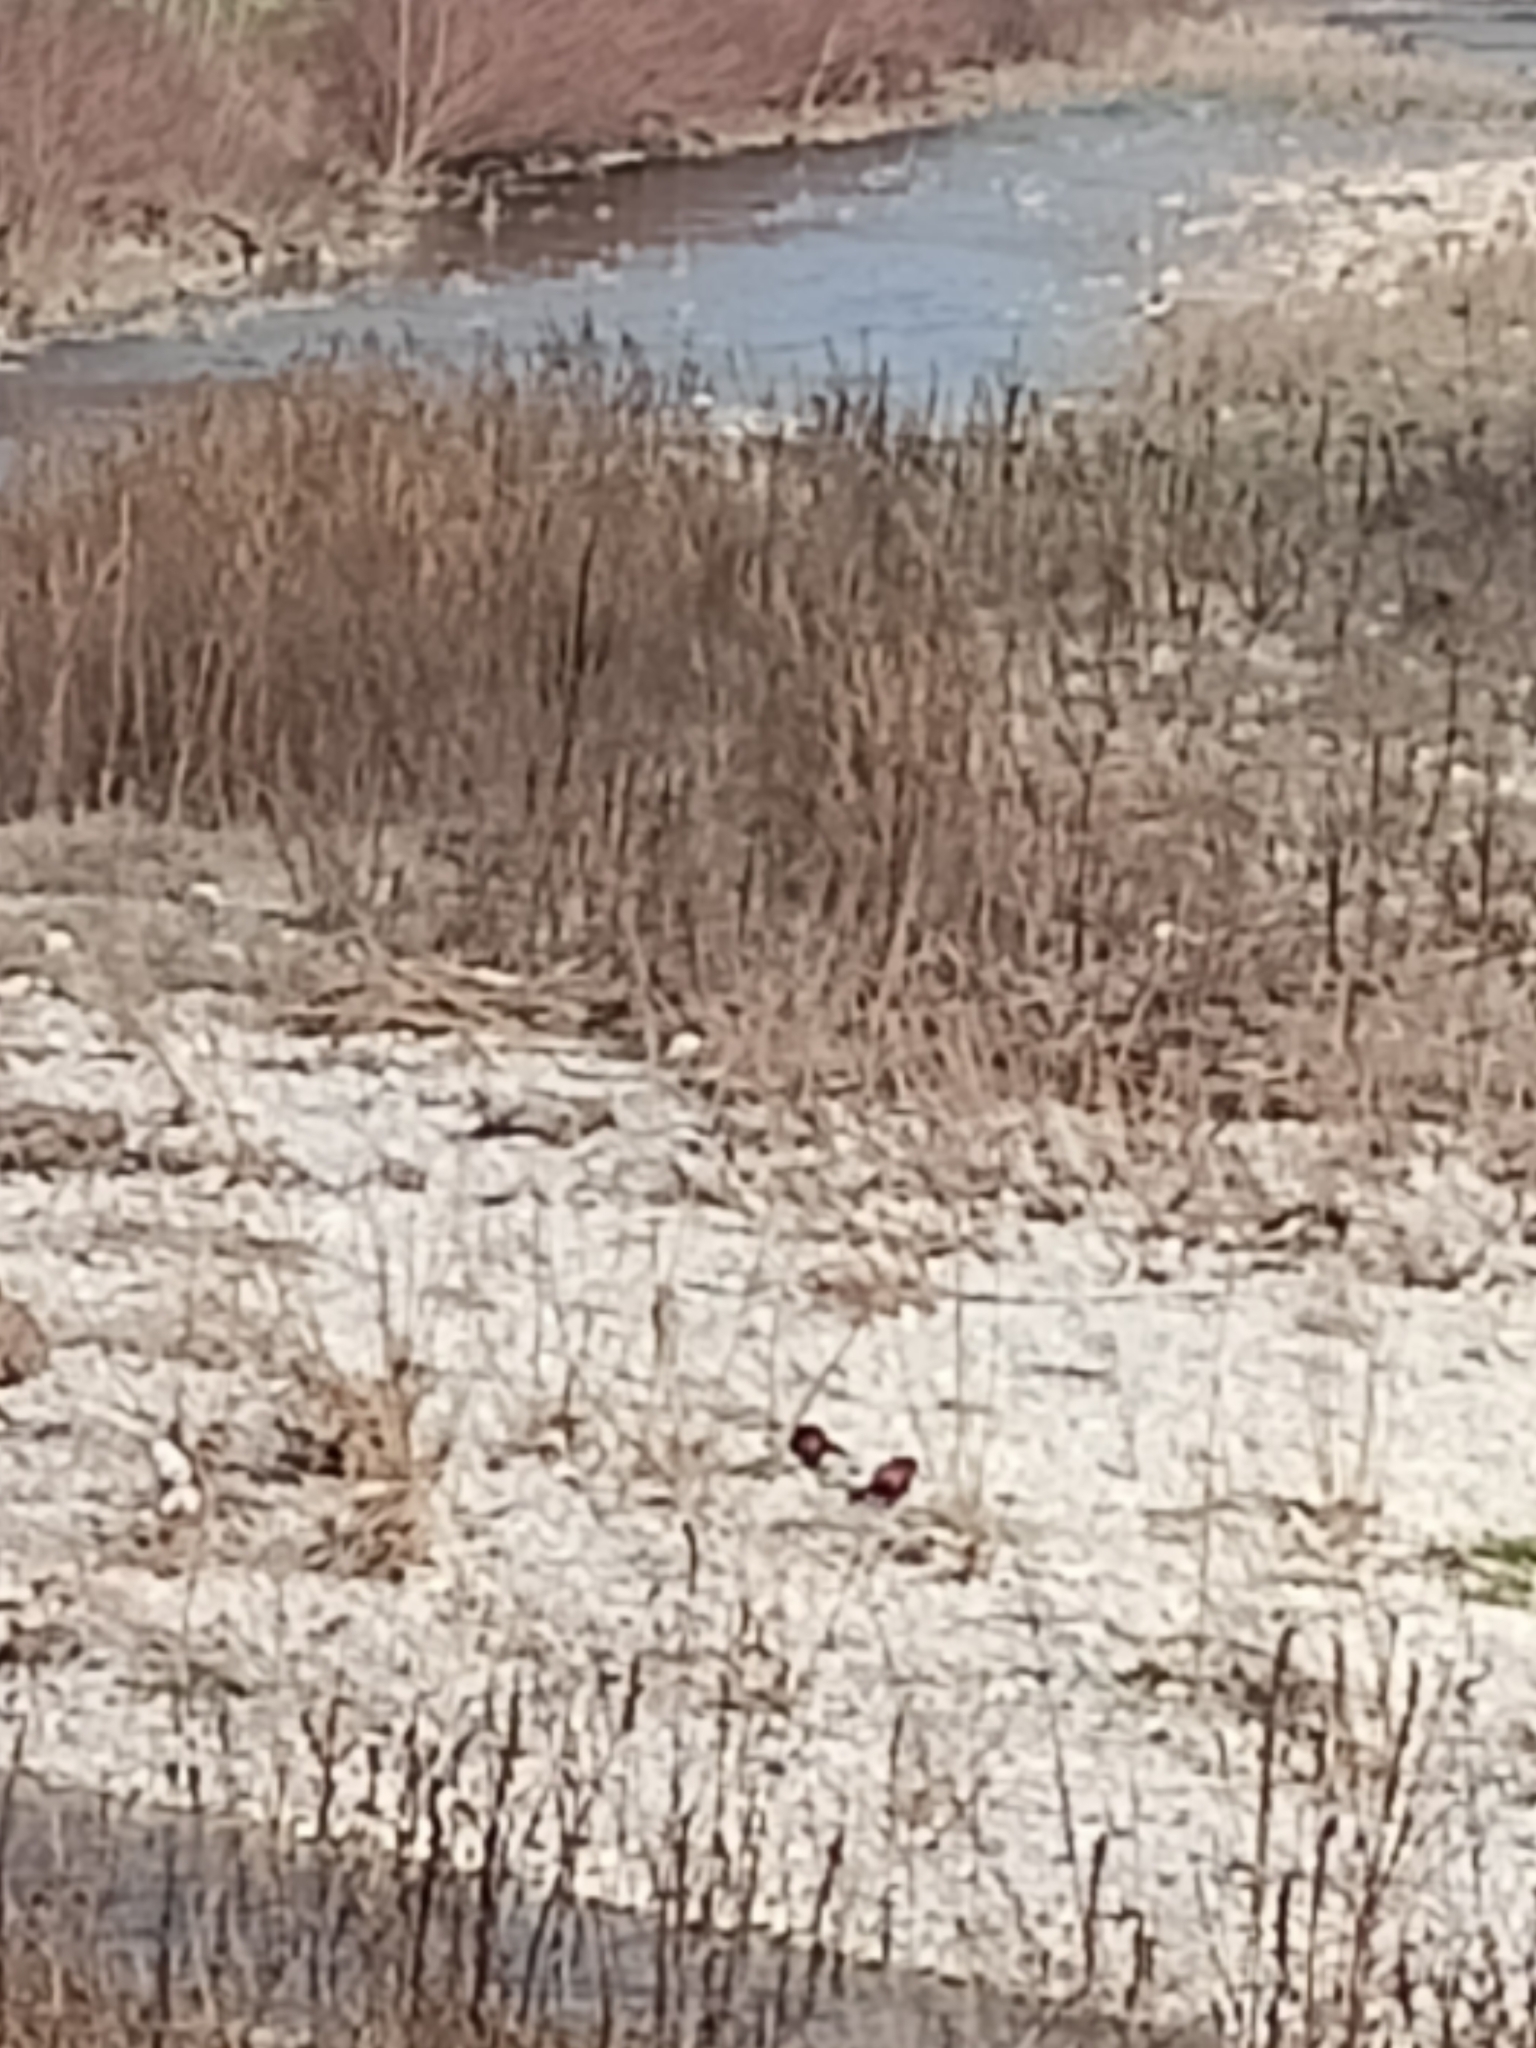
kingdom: Animalia
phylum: Chordata
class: Aves
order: Galliformes
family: Phasianidae
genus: Phasianus
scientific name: Phasianus colchicus
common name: Common pheasant
